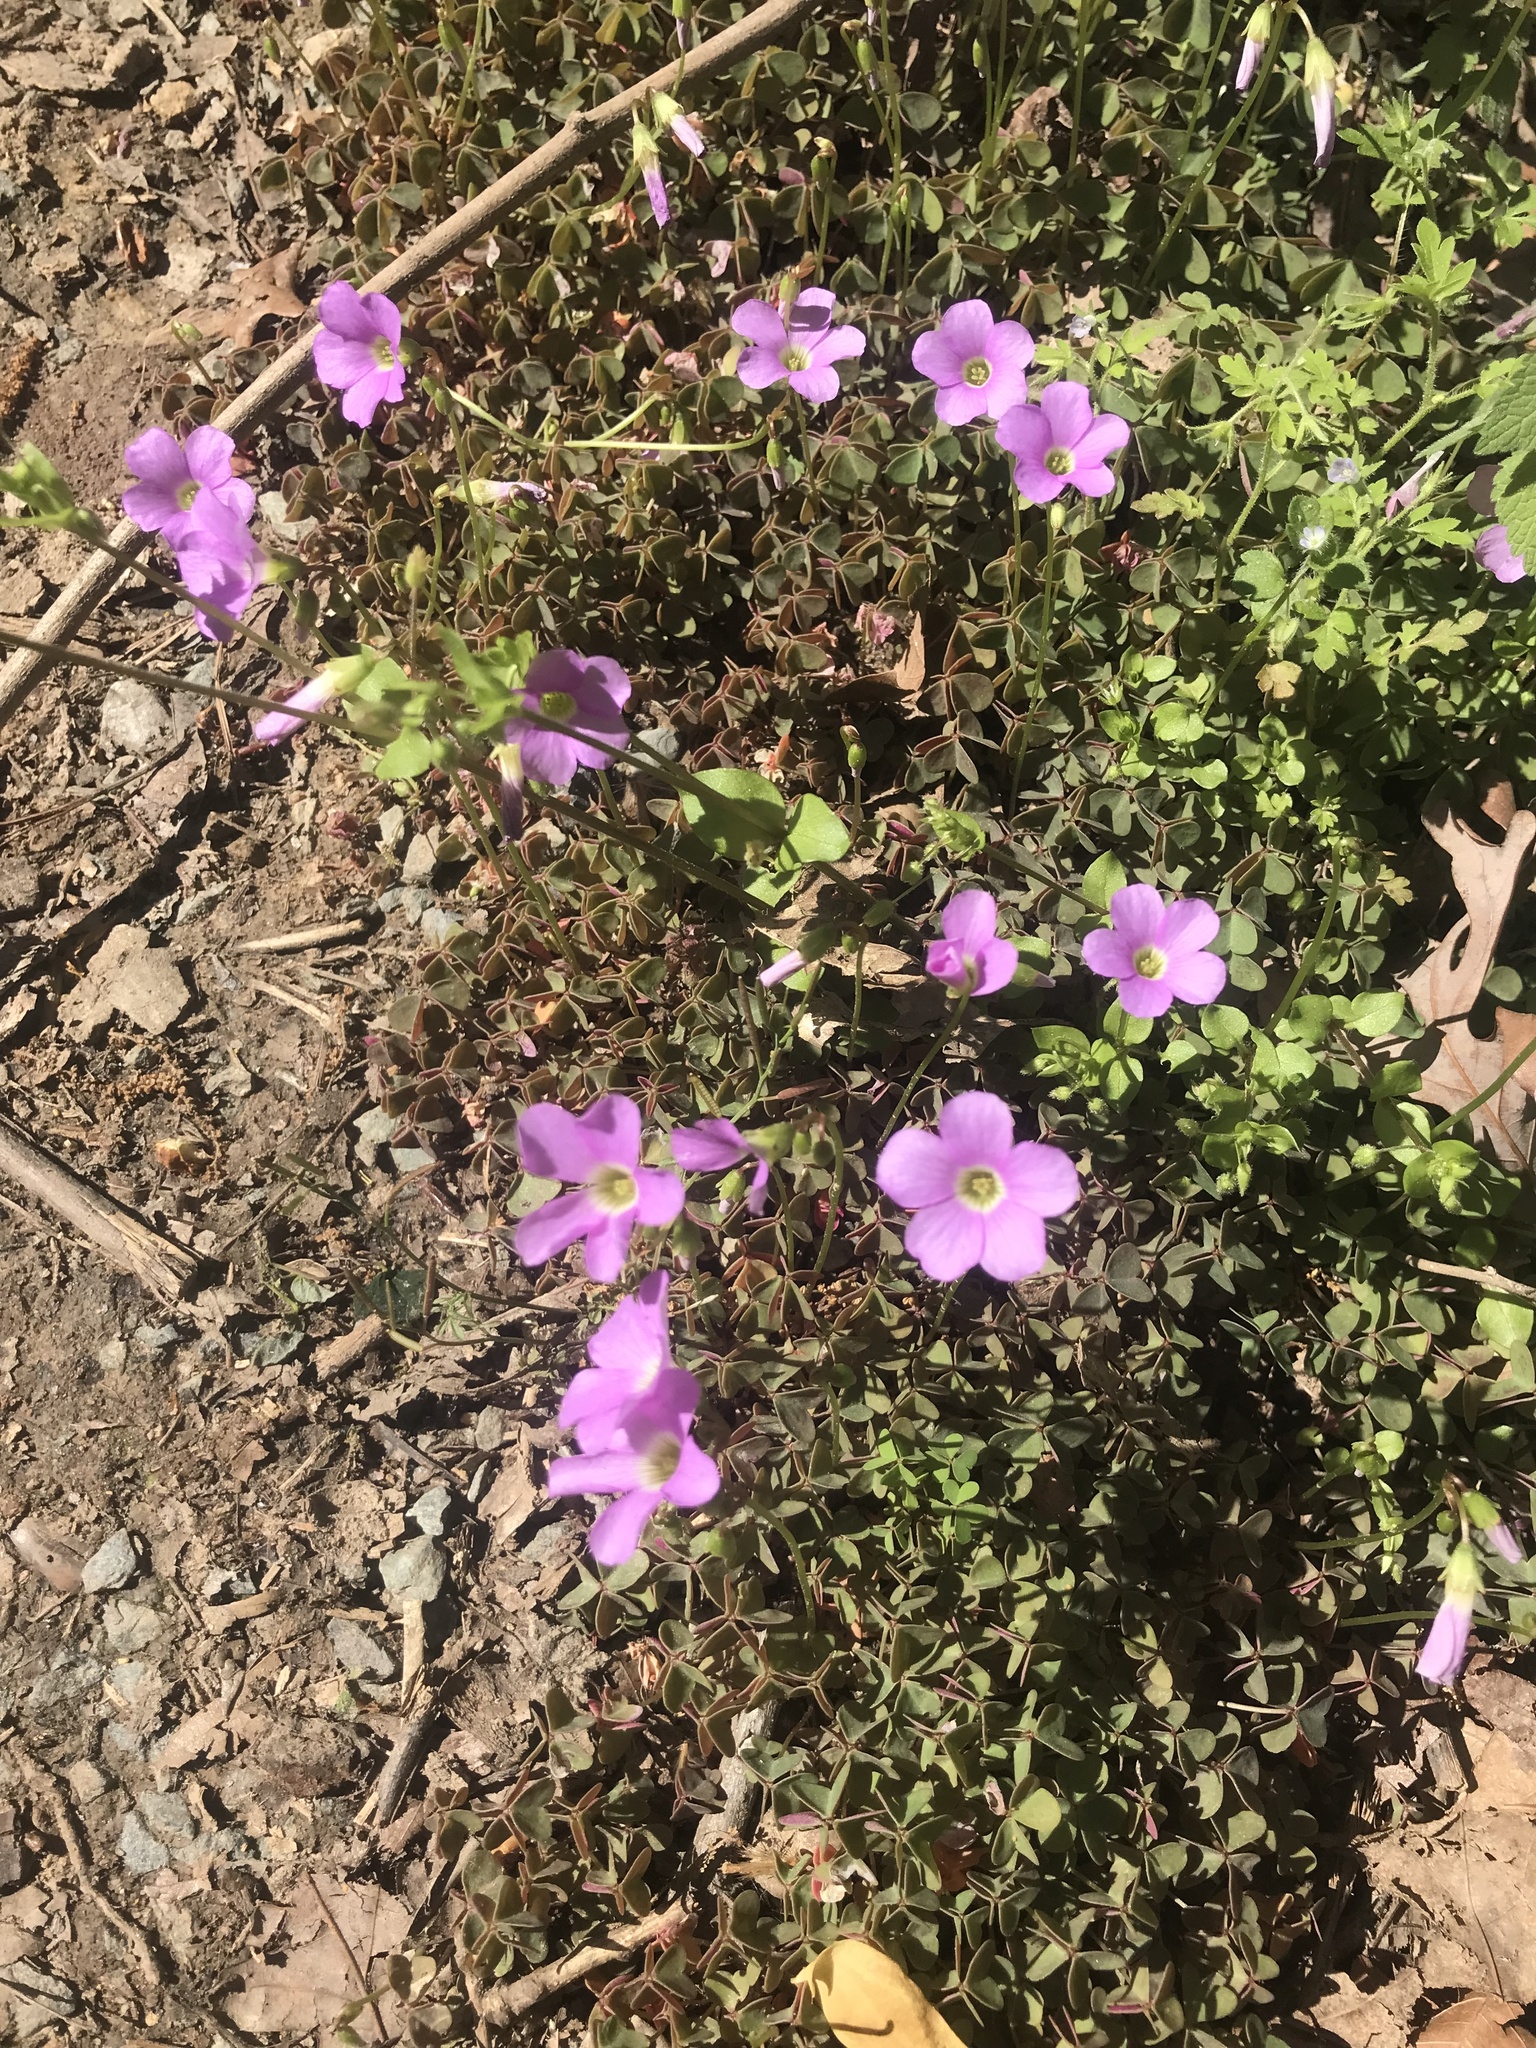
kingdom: Plantae
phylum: Tracheophyta
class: Magnoliopsida
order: Oxalidales
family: Oxalidaceae
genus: Oxalis
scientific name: Oxalis violacea
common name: Violet wood-sorrel
